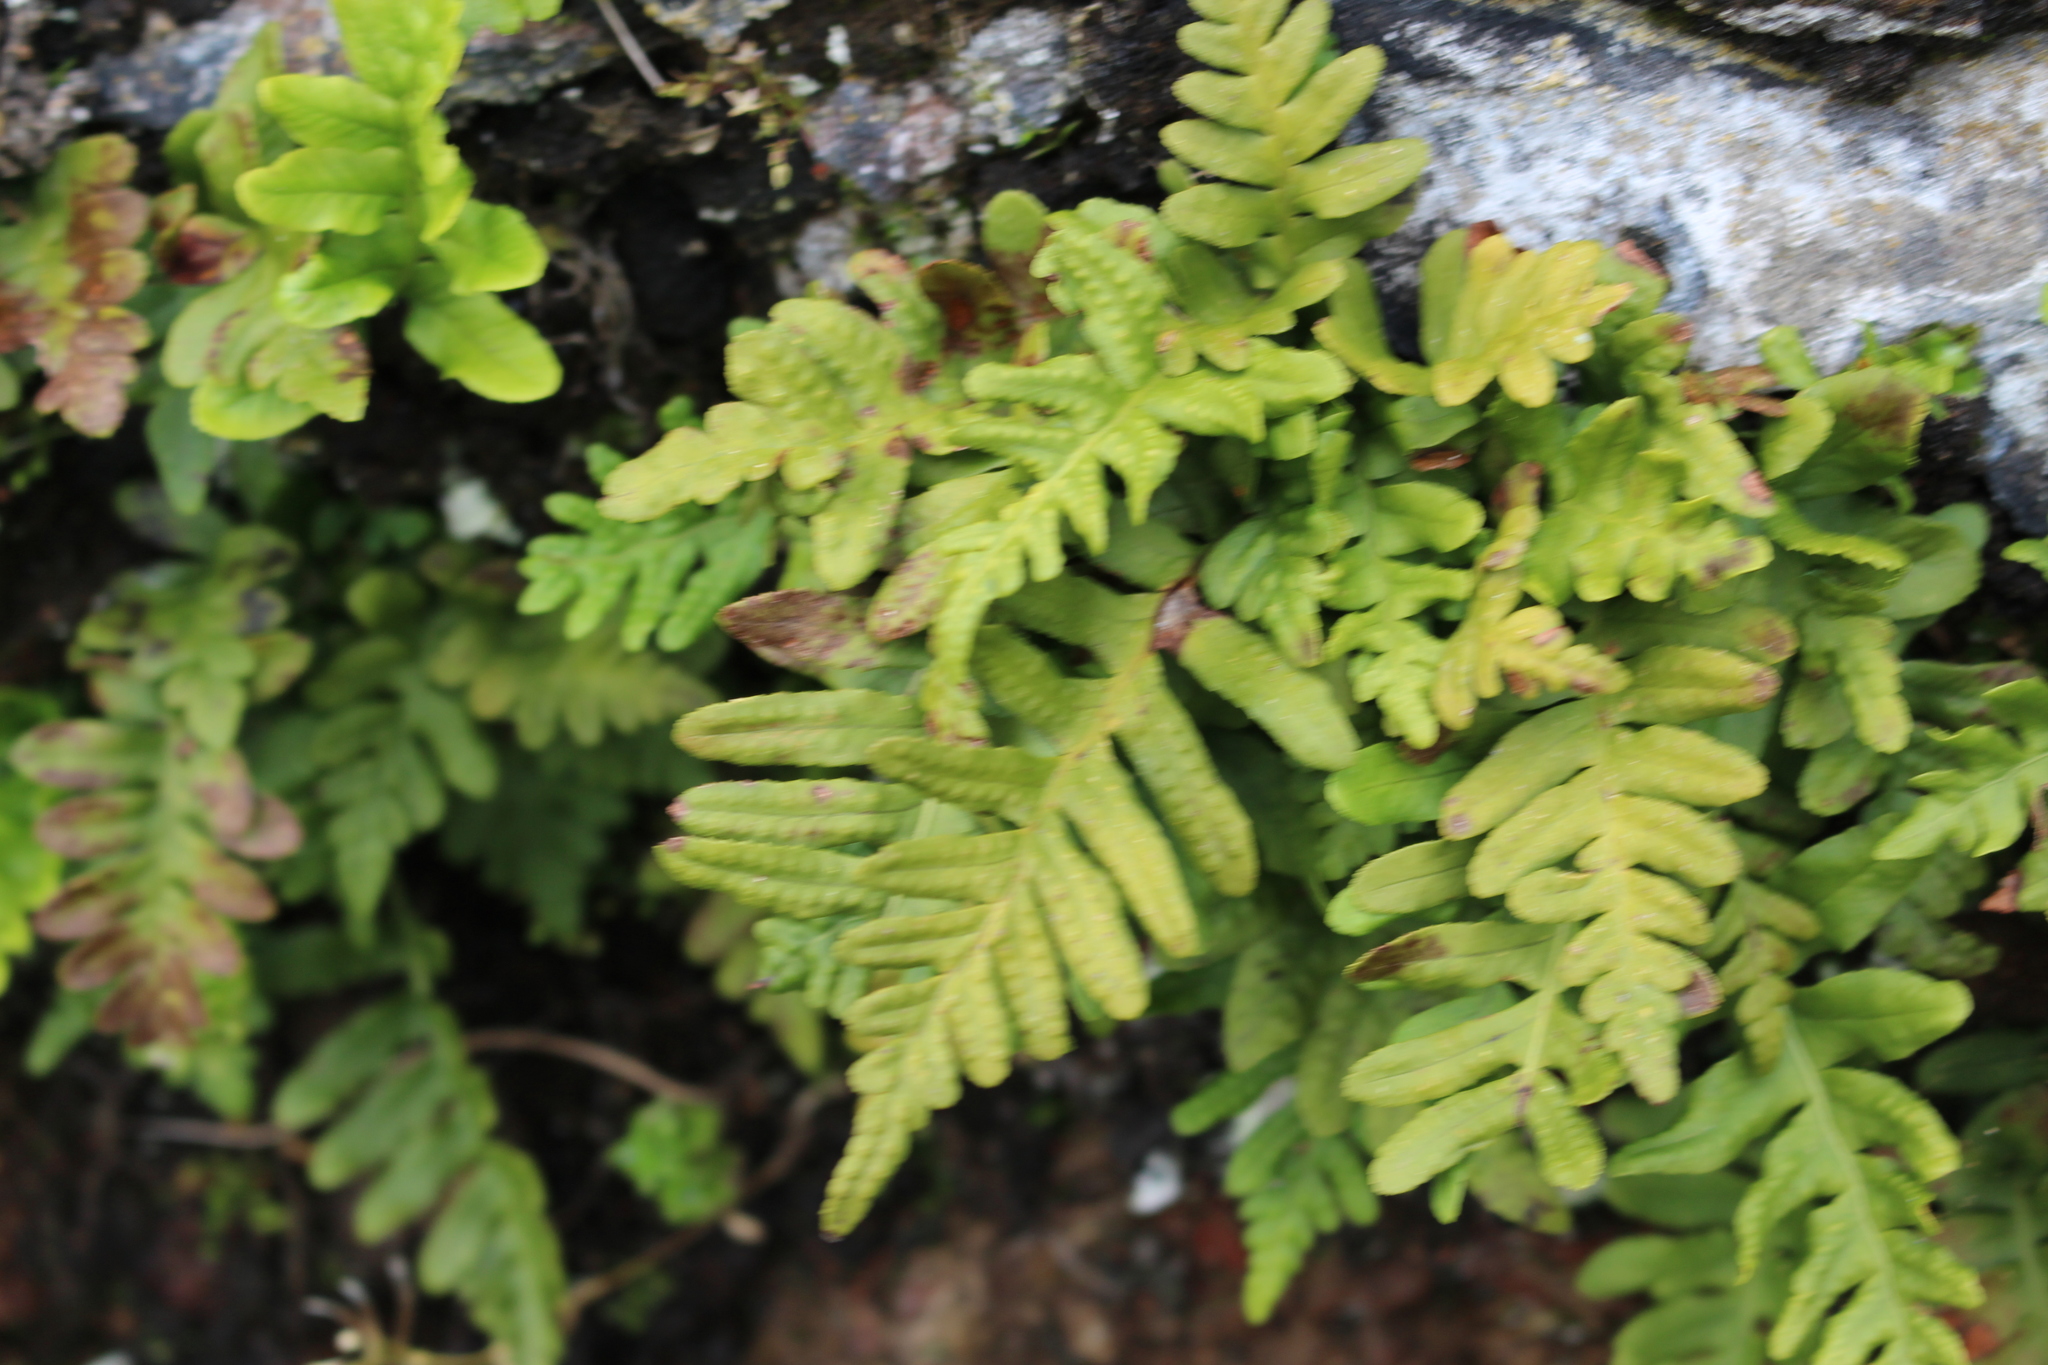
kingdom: Plantae
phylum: Tracheophyta
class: Polypodiopsida
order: Polypodiales
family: Polypodiaceae
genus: Polypodium
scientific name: Polypodium vulgare
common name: Common polypody
